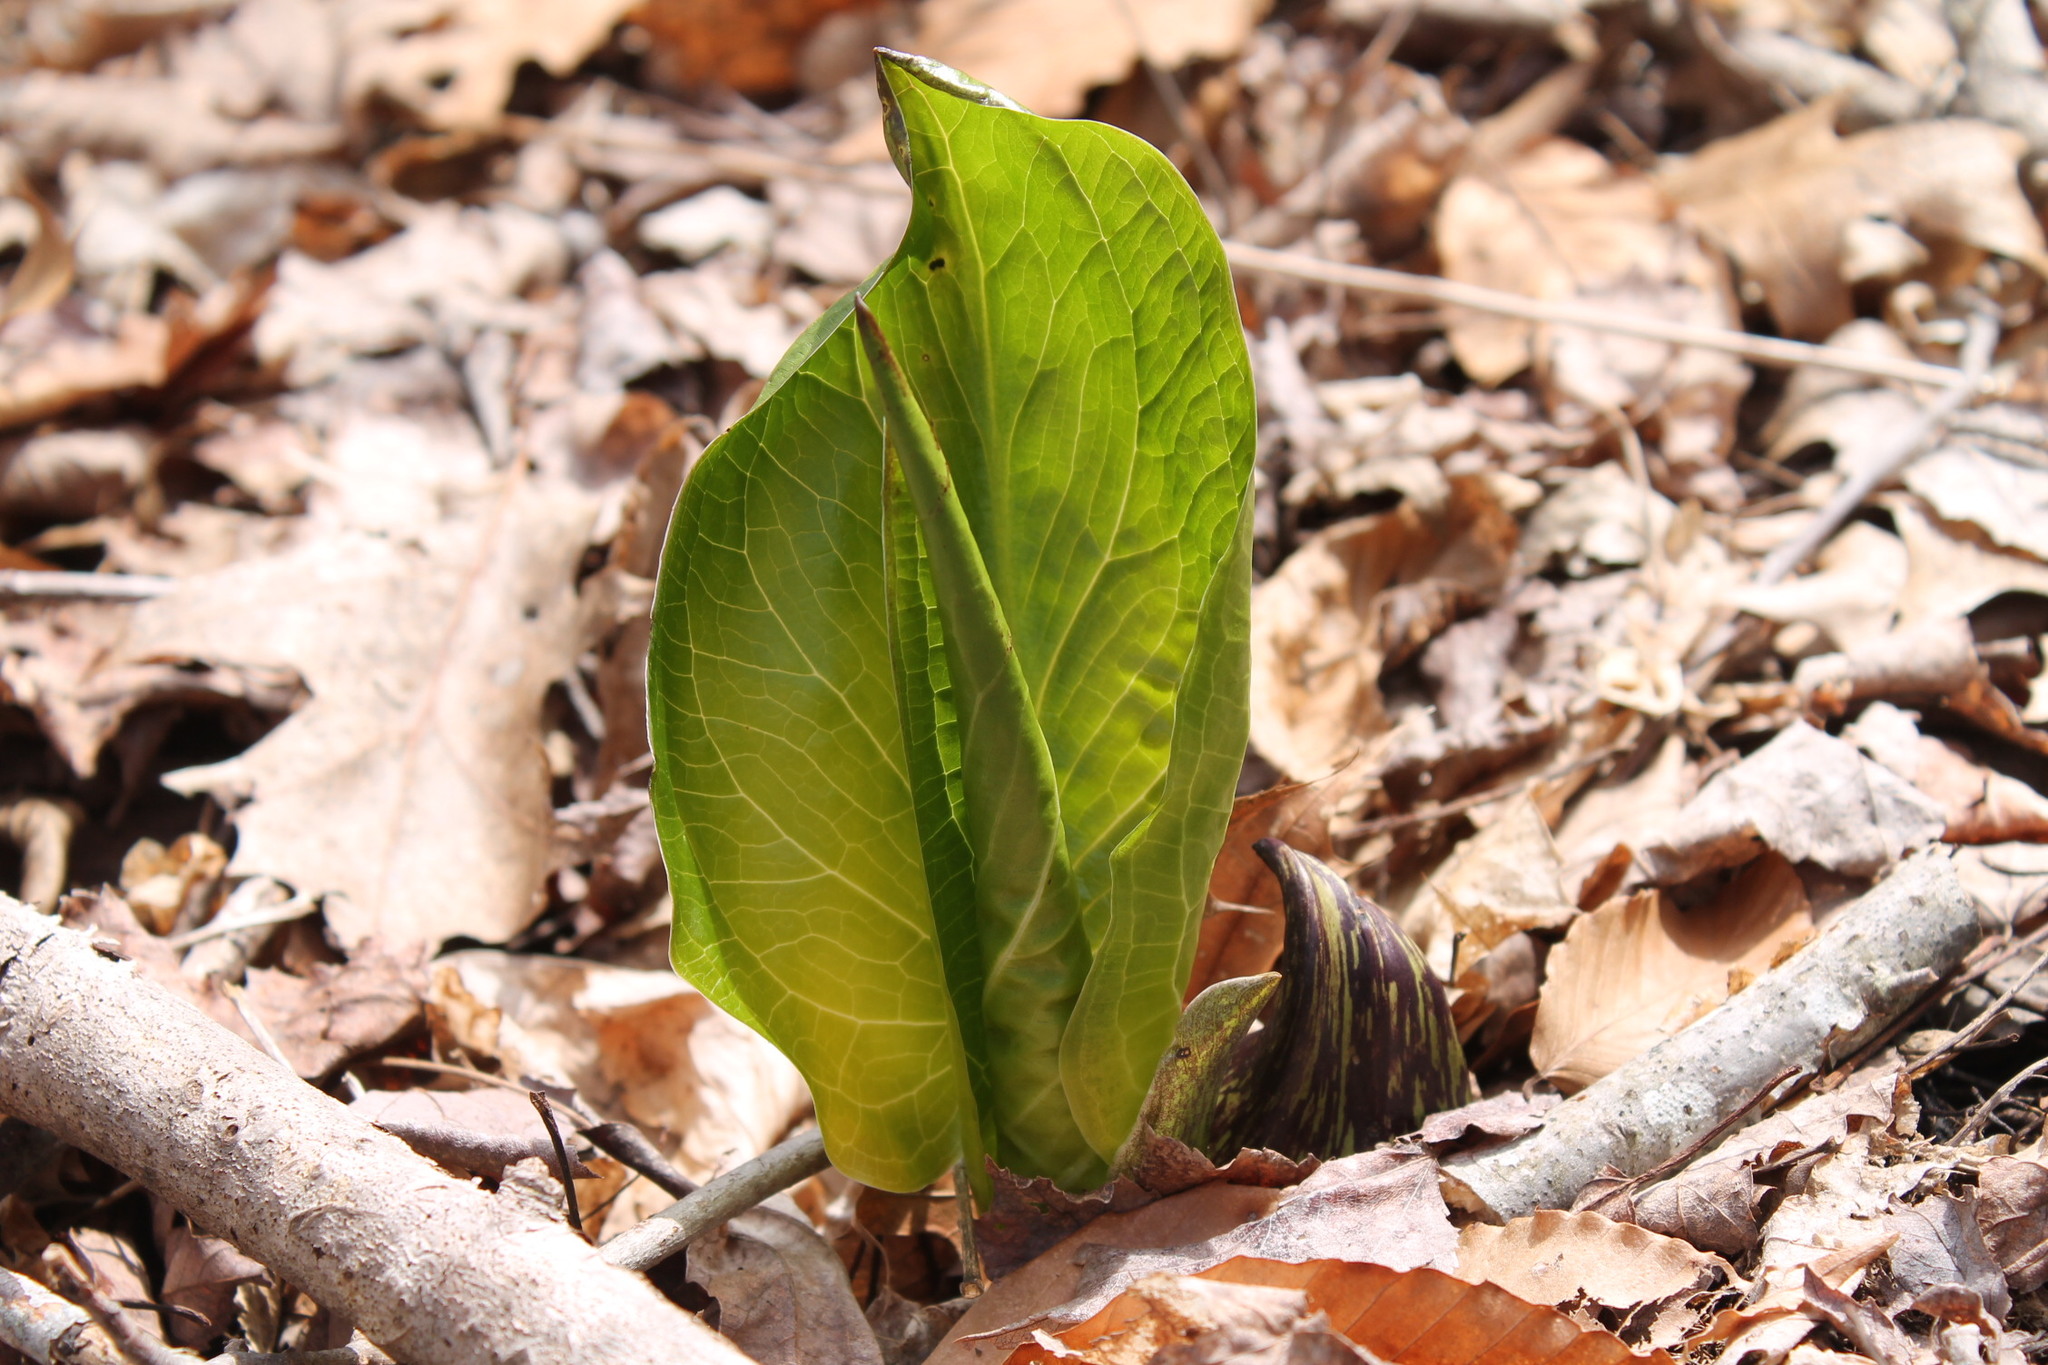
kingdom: Plantae
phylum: Tracheophyta
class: Liliopsida
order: Alismatales
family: Araceae
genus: Symplocarpus
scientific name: Symplocarpus foetidus
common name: Eastern skunk cabbage
